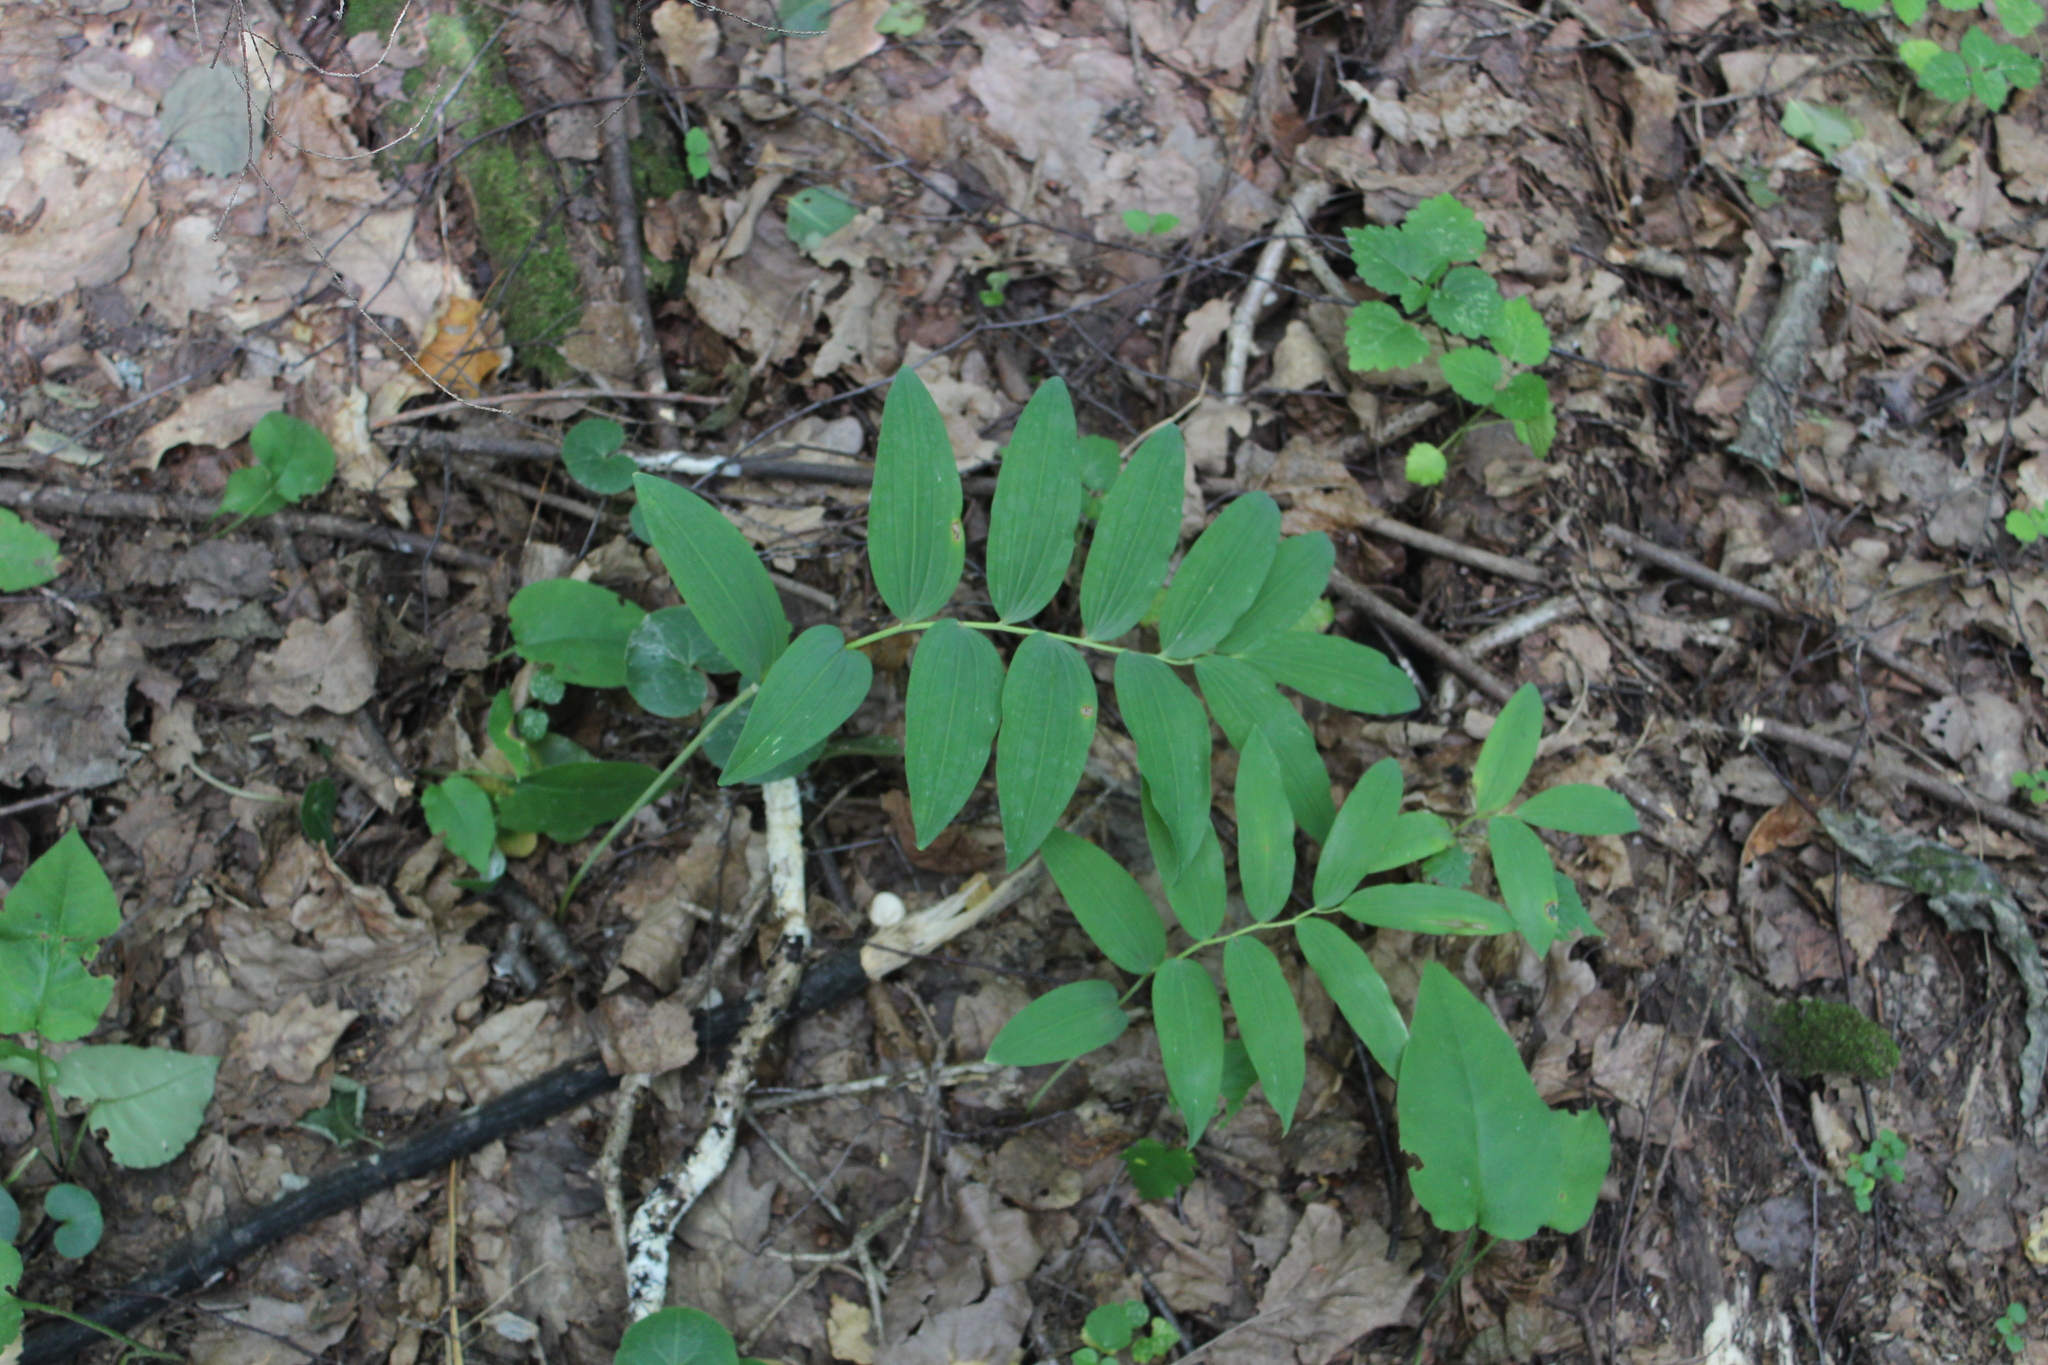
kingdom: Plantae
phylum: Tracheophyta
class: Liliopsida
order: Asparagales
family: Asparagaceae
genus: Polygonatum
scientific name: Polygonatum multiflorum
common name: Solomon's-seal
